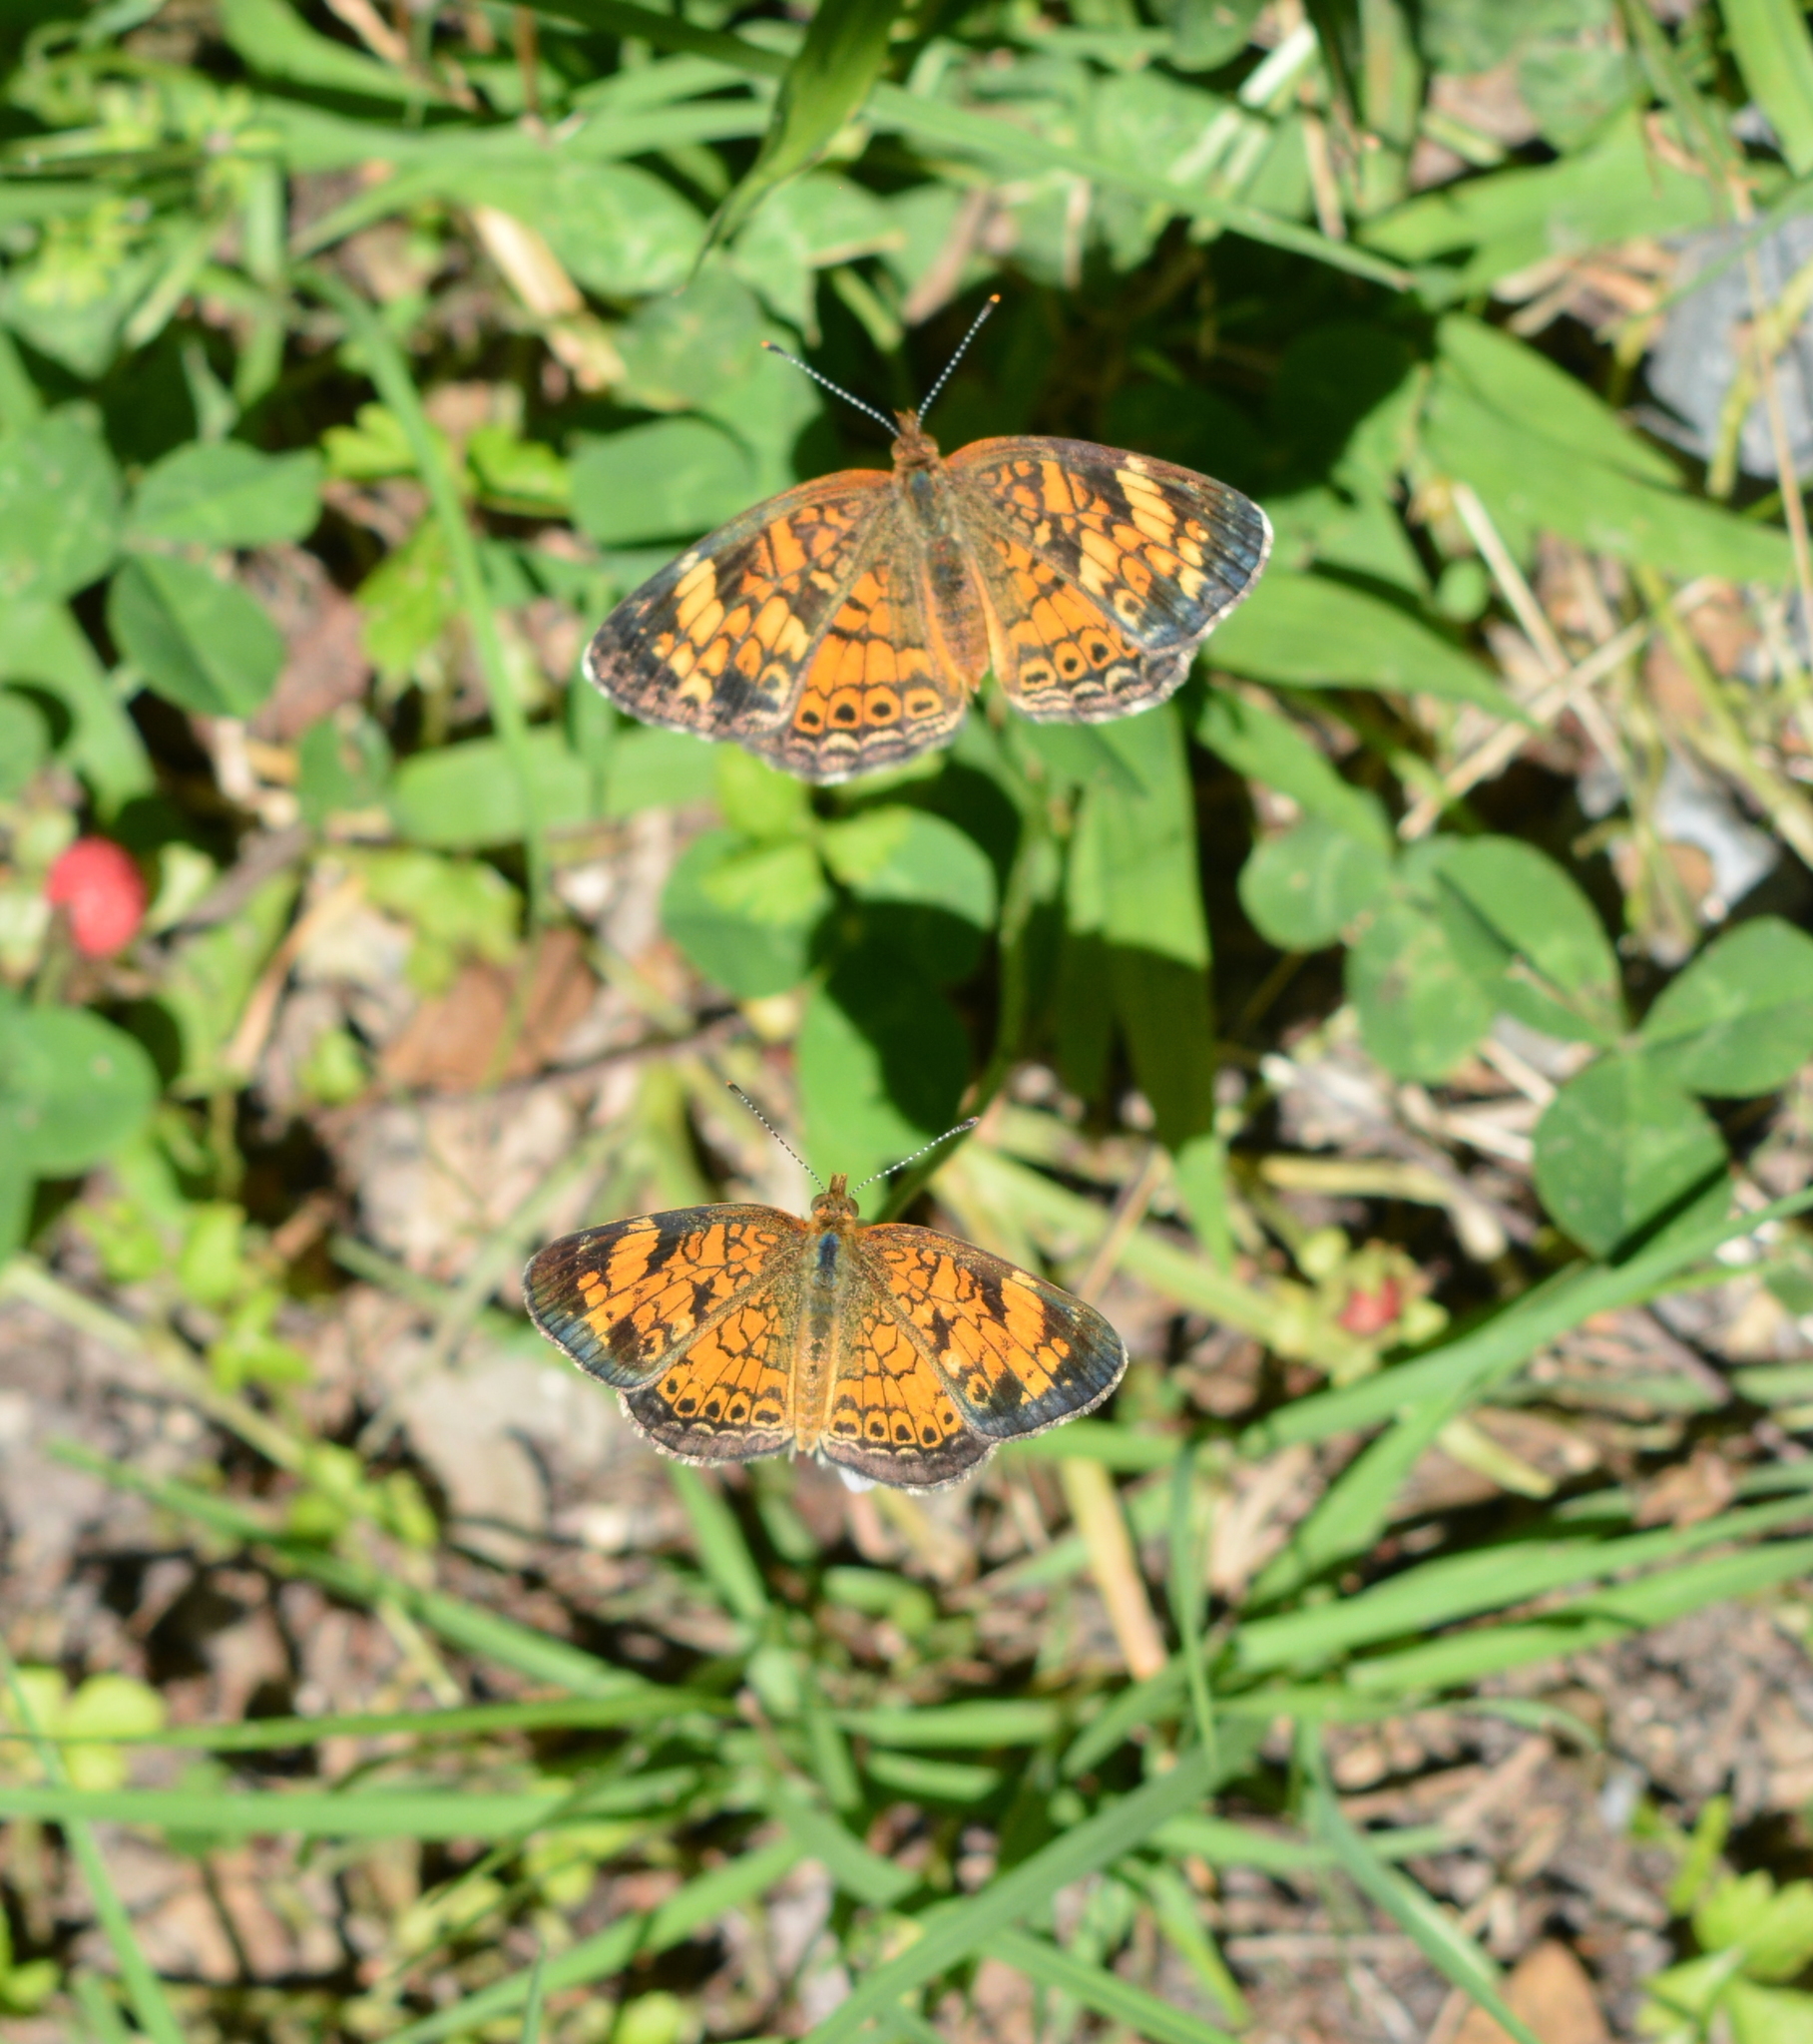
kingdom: Animalia
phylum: Arthropoda
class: Insecta
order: Lepidoptera
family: Nymphalidae
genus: Phyciodes
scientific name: Phyciodes tharos
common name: Pearl crescent
